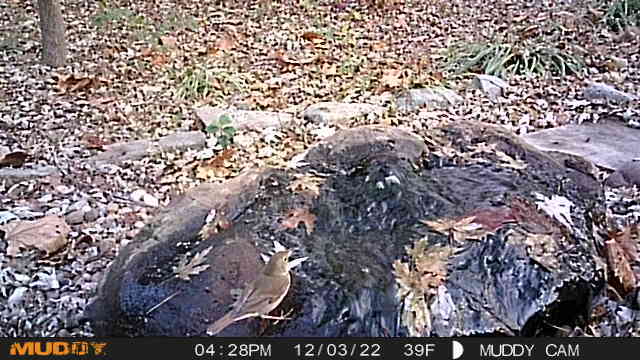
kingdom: Animalia
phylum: Chordata
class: Aves
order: Passeriformes
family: Turdidae
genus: Catharus
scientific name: Catharus guttatus
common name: Hermit thrush
